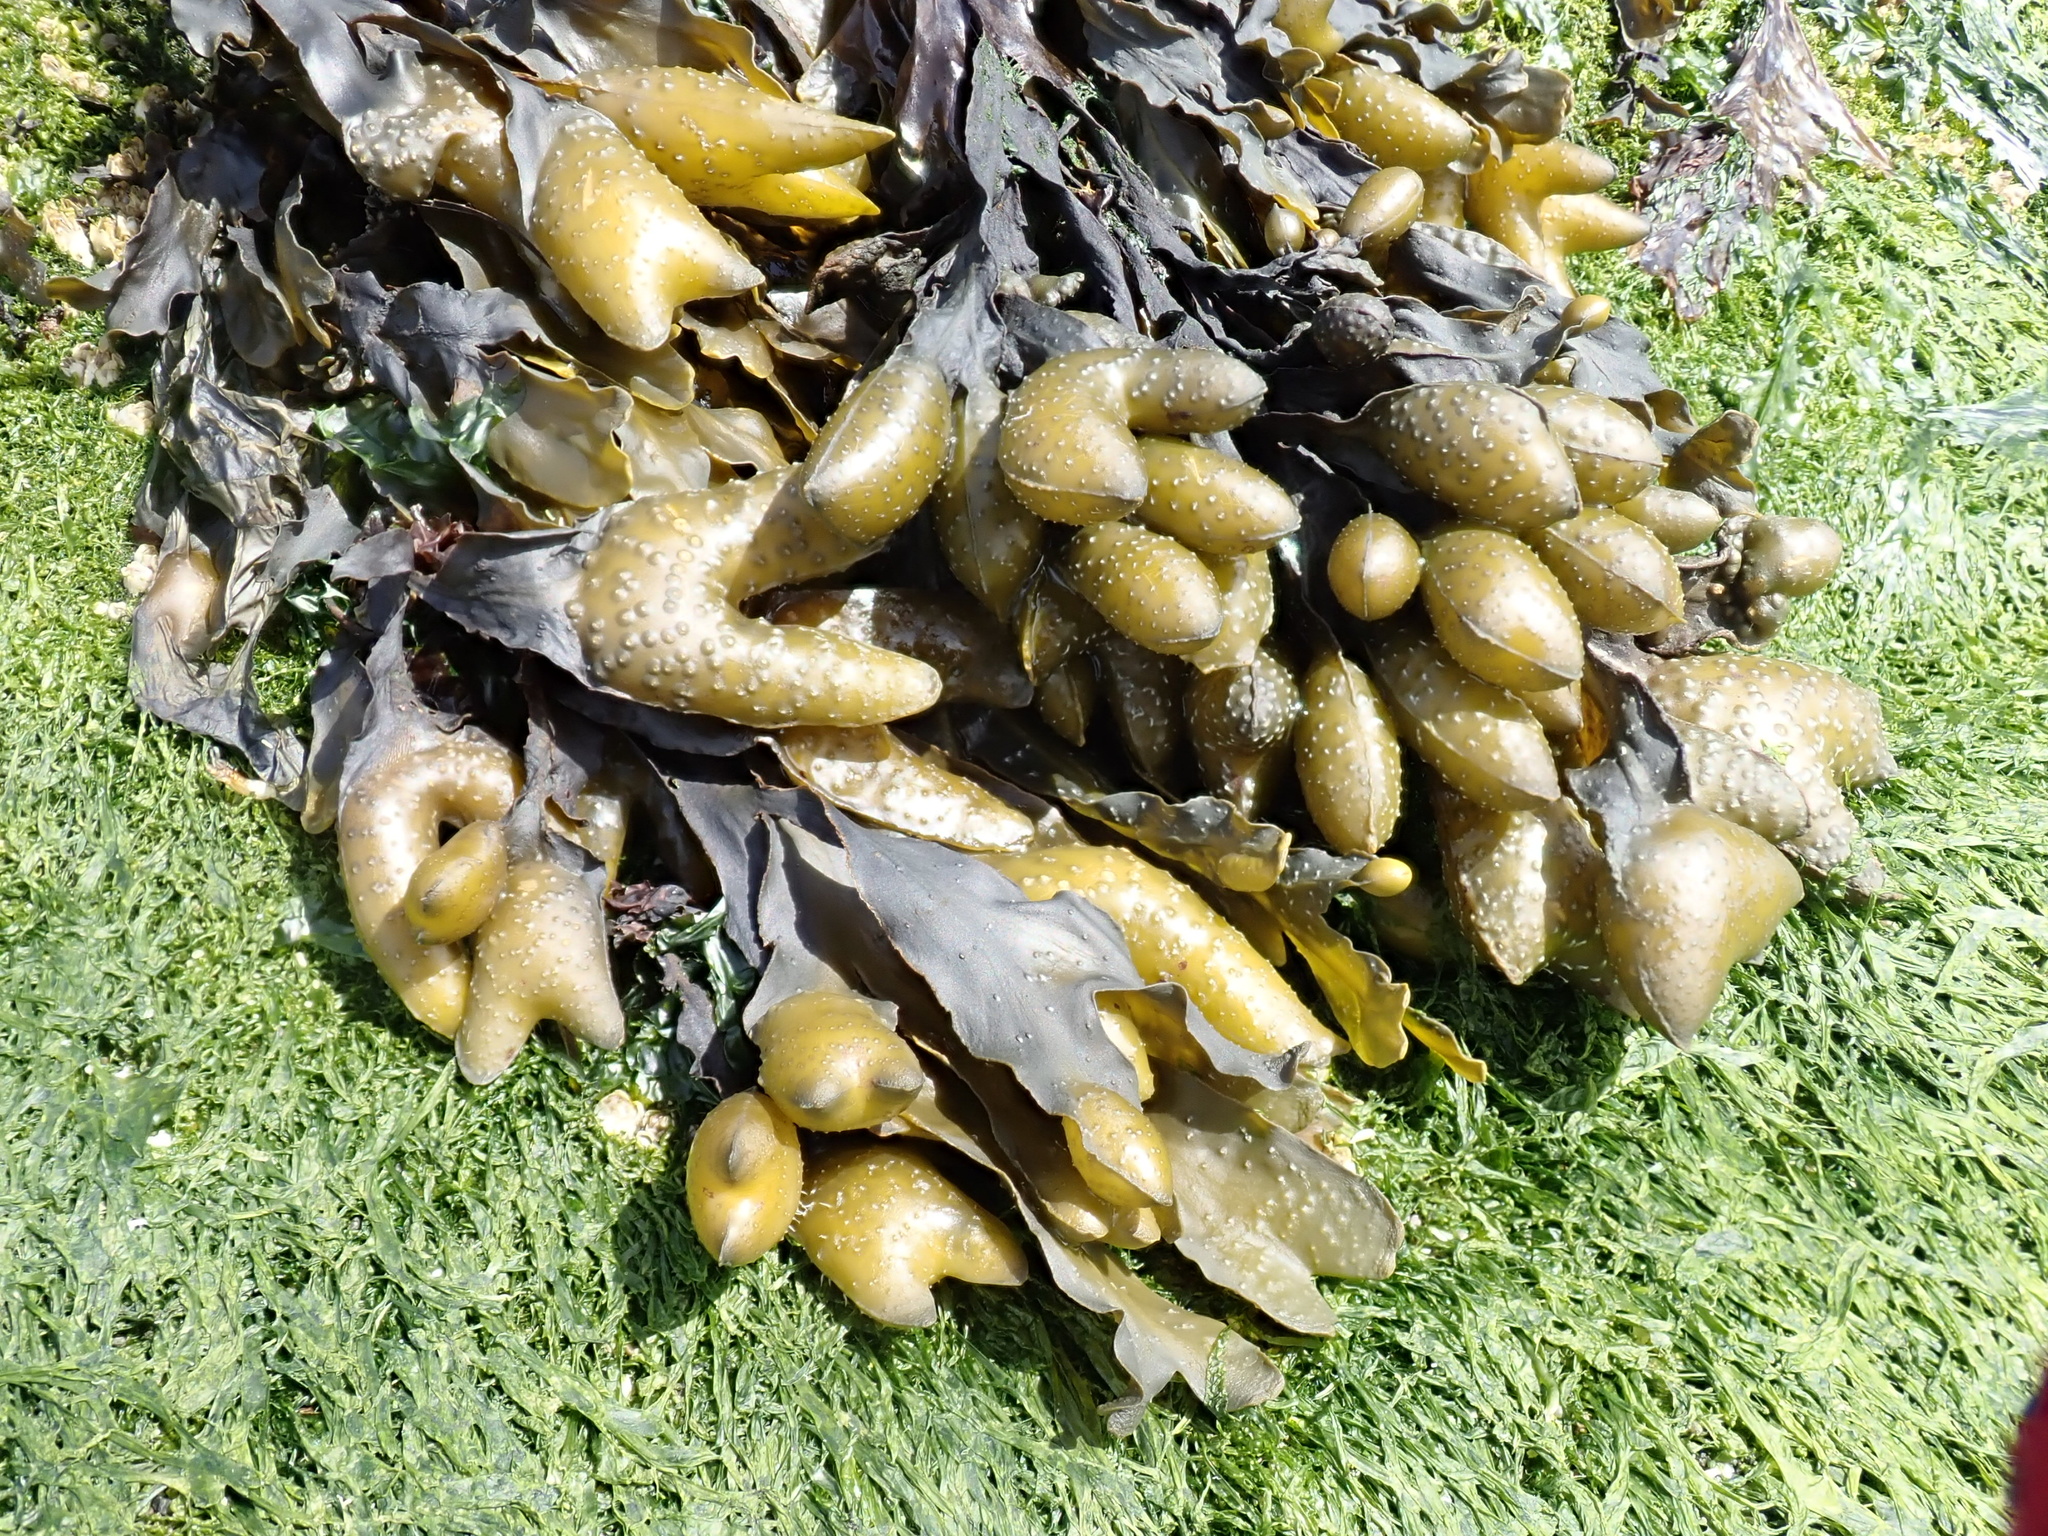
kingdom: Chromista
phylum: Ochrophyta
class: Phaeophyceae
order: Fucales
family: Fucaceae
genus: Fucus
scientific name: Fucus distichus
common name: Rockweed
